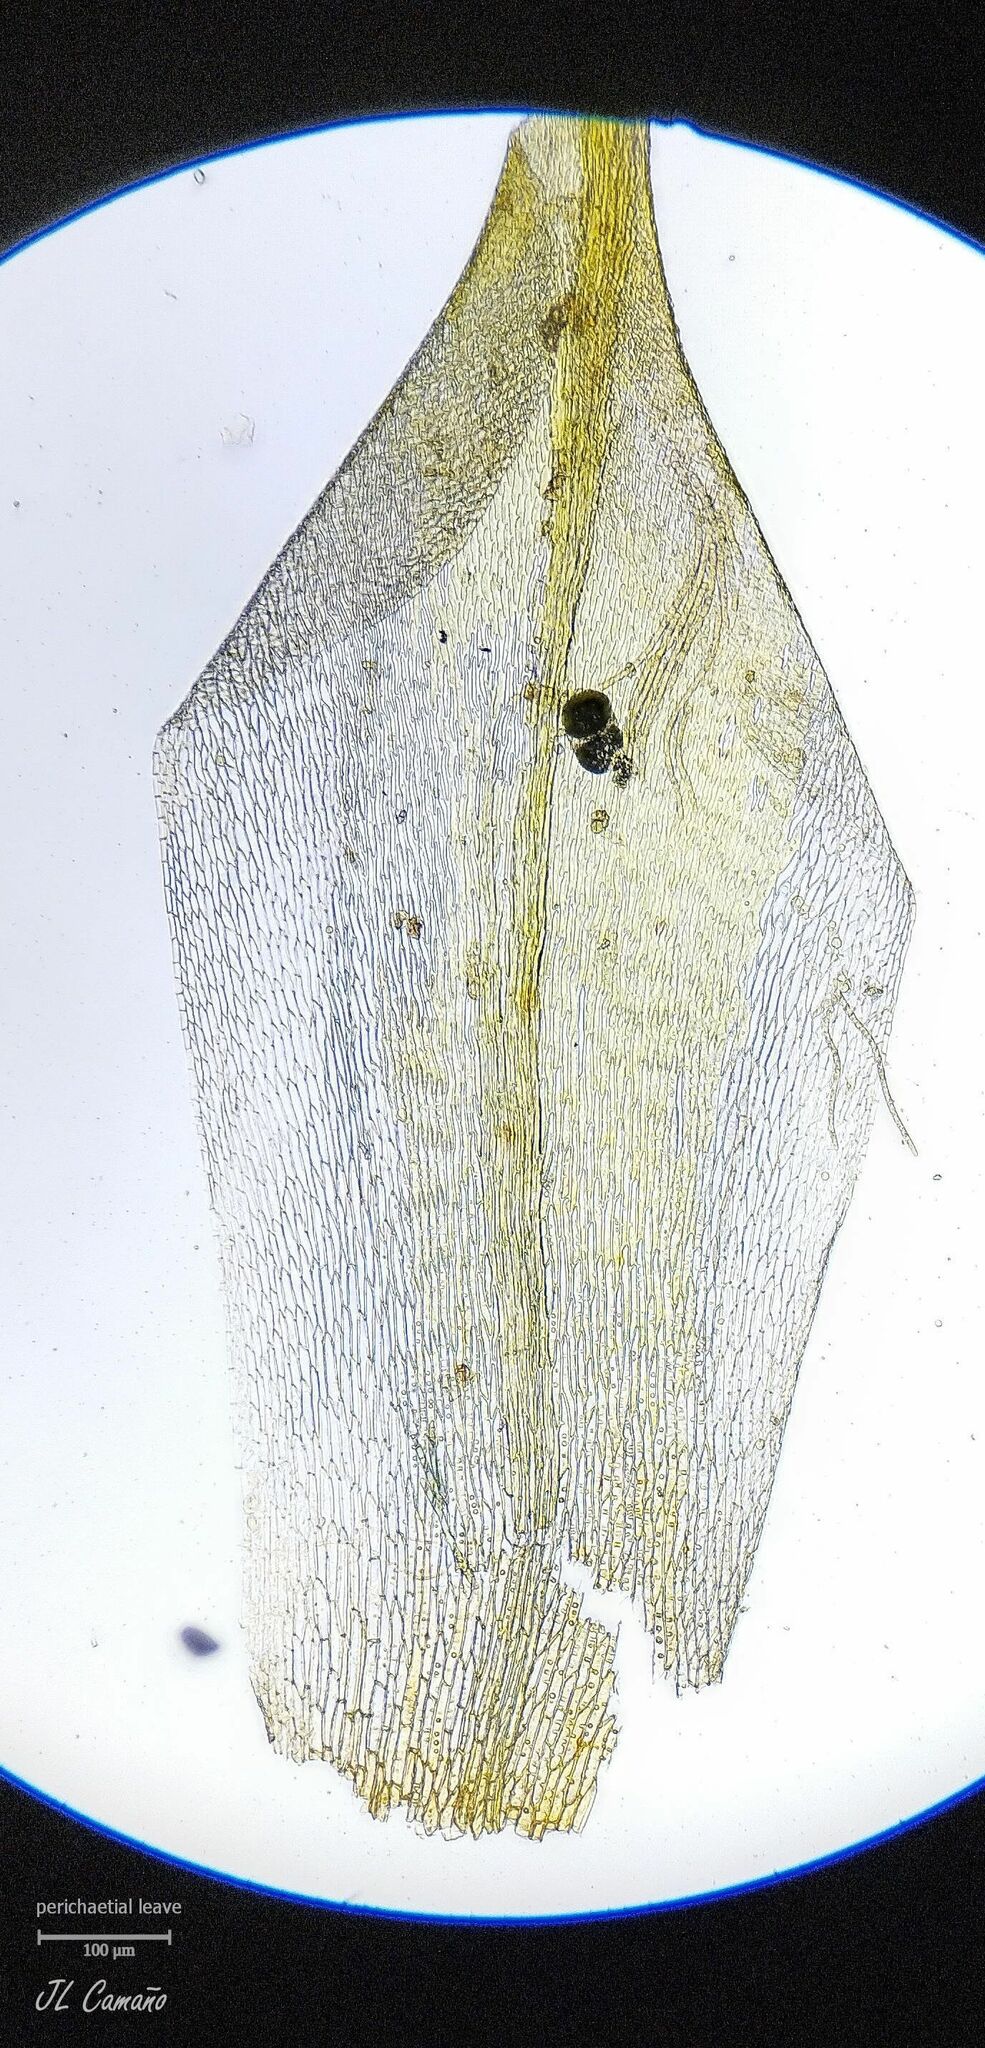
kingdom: Plantae
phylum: Bryophyta
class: Bryopsida
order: Hypnales
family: Cryphaeaceae
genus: Cryphaea
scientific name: Cryphaea heteromalla
